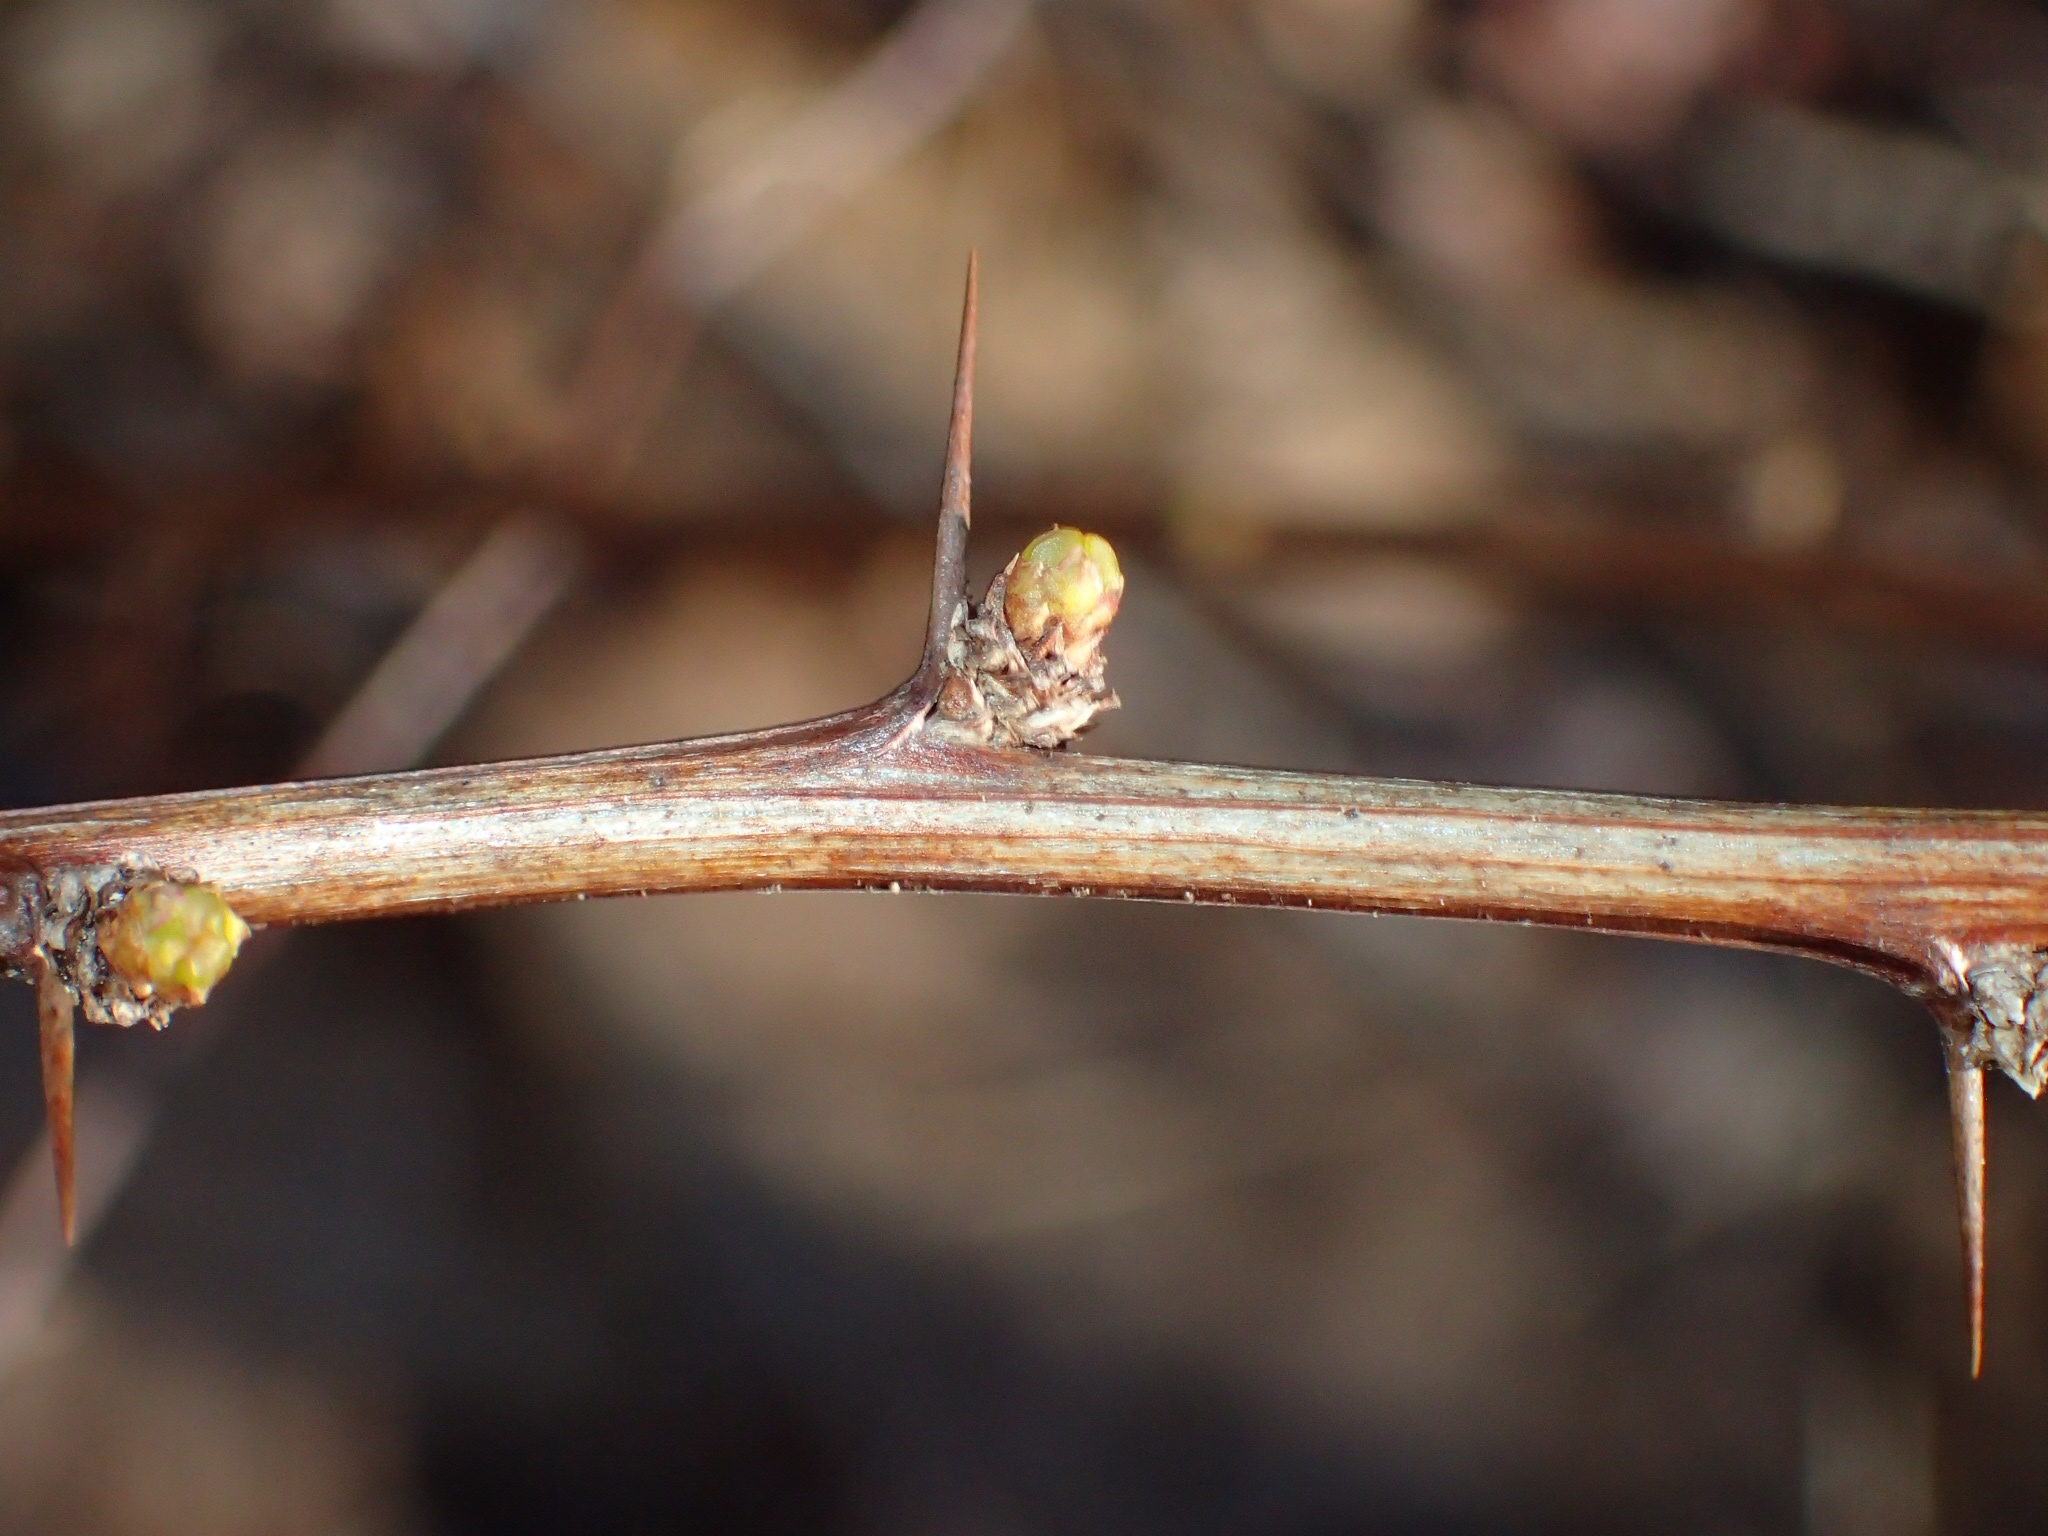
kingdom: Plantae
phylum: Tracheophyta
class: Magnoliopsida
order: Ranunculales
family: Berberidaceae
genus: Berberis
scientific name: Berberis thunbergii
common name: Japanese barberry
